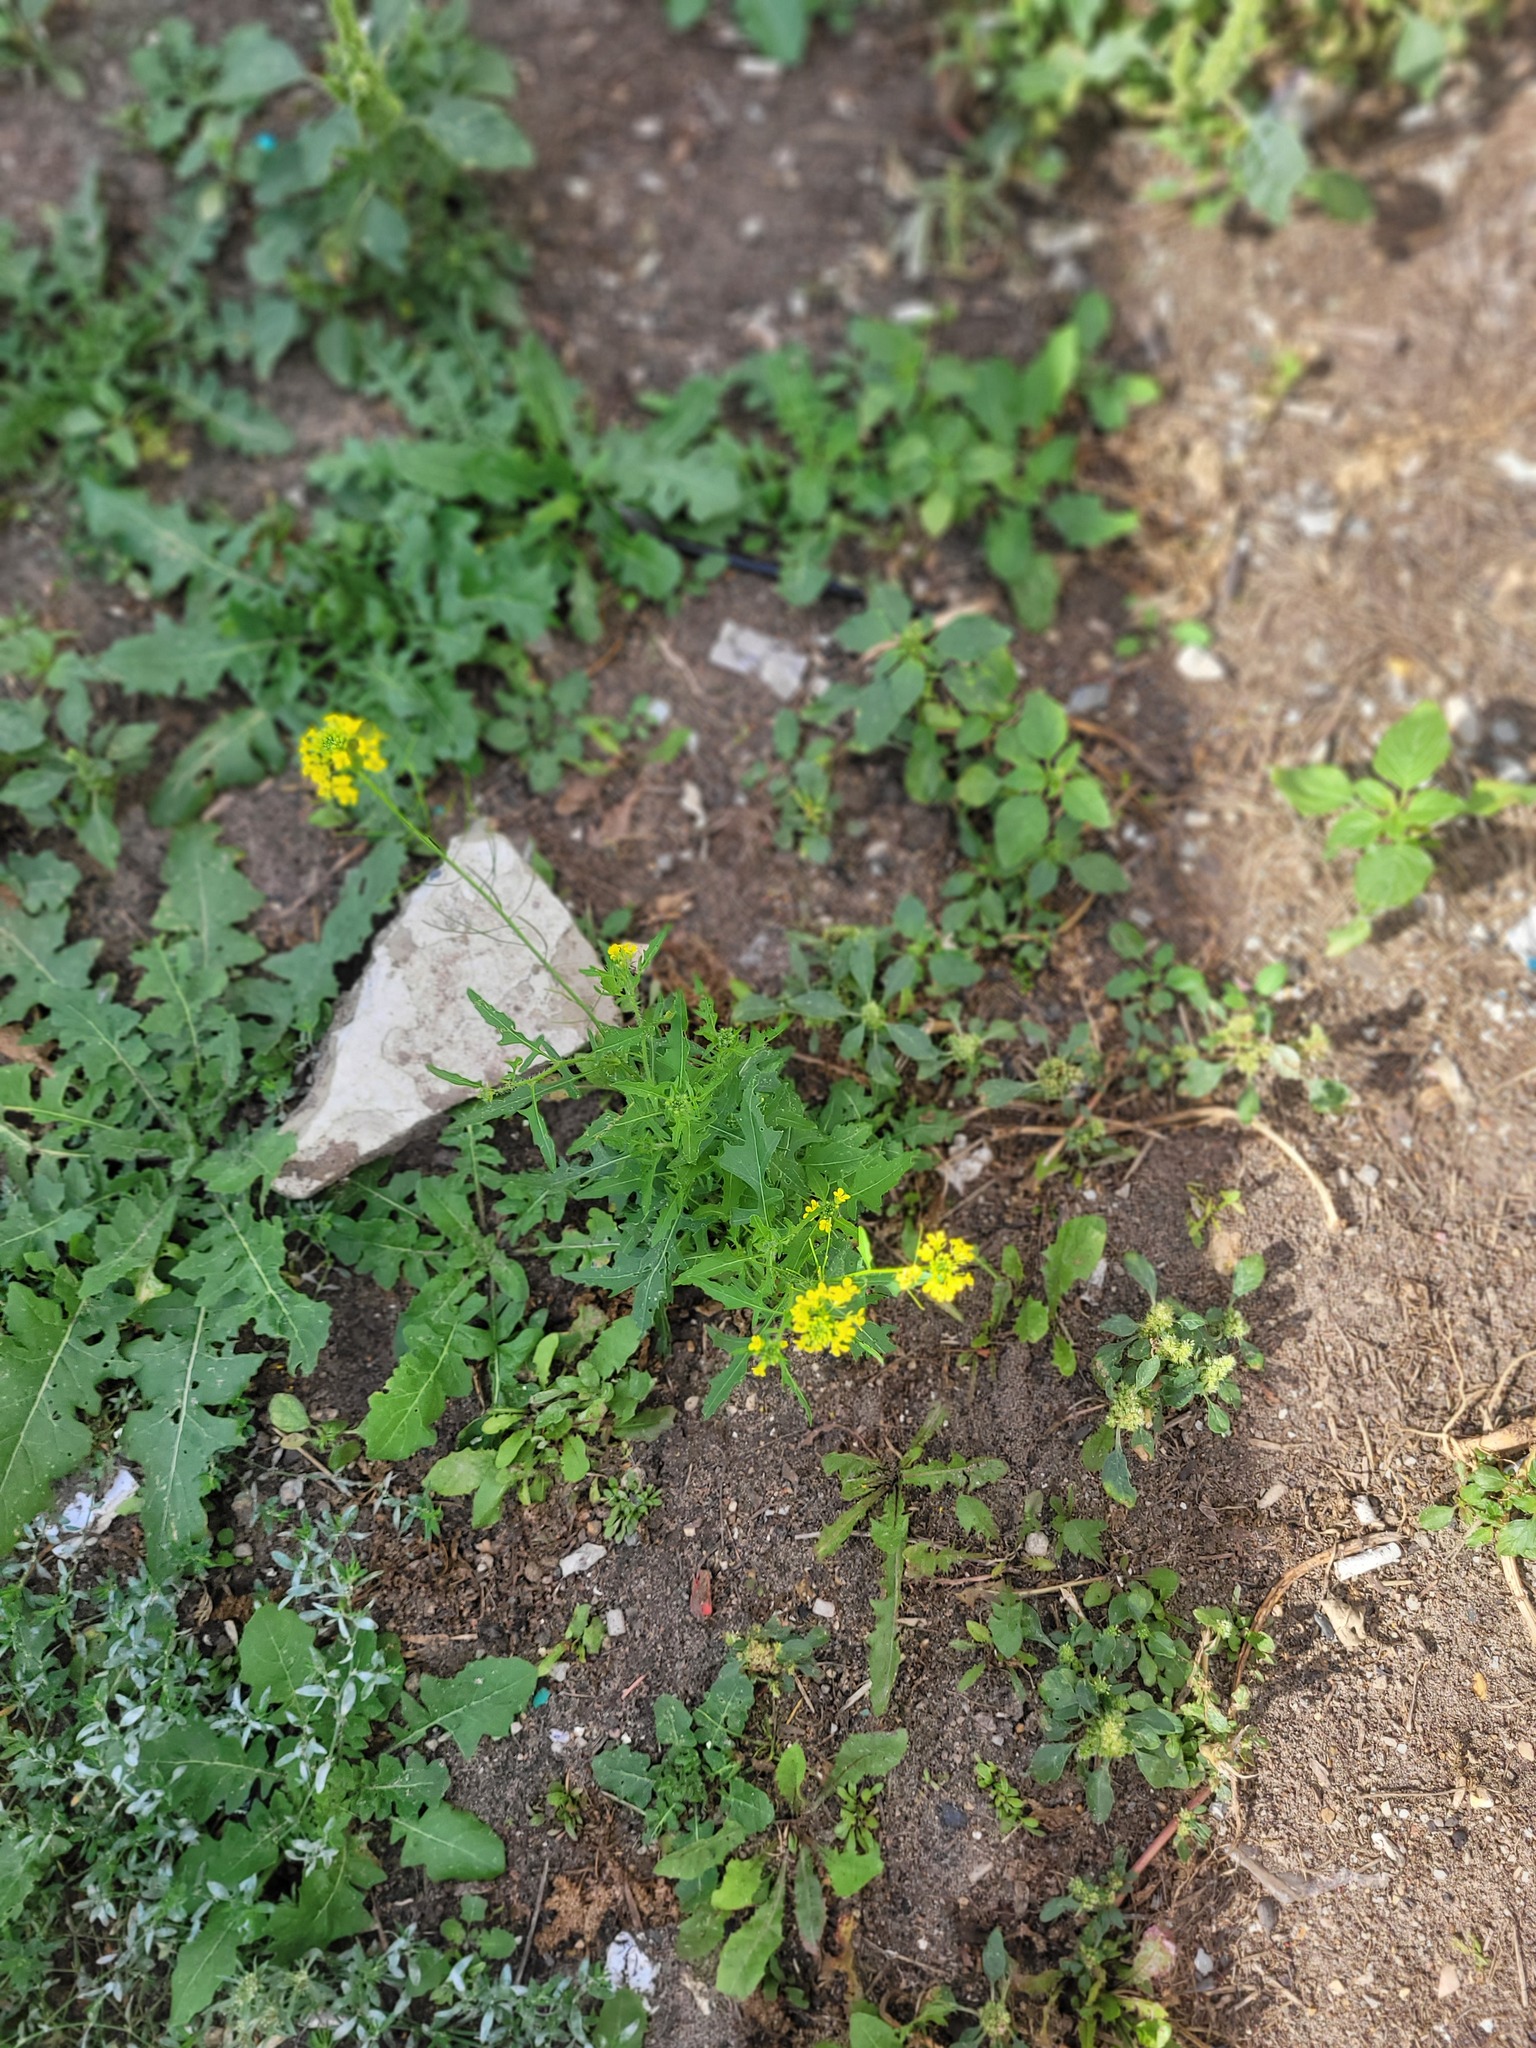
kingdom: Plantae
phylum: Tracheophyta
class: Magnoliopsida
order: Brassicales
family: Brassicaceae
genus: Sisymbrium
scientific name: Sisymbrium loeselii
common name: False london-rocket
